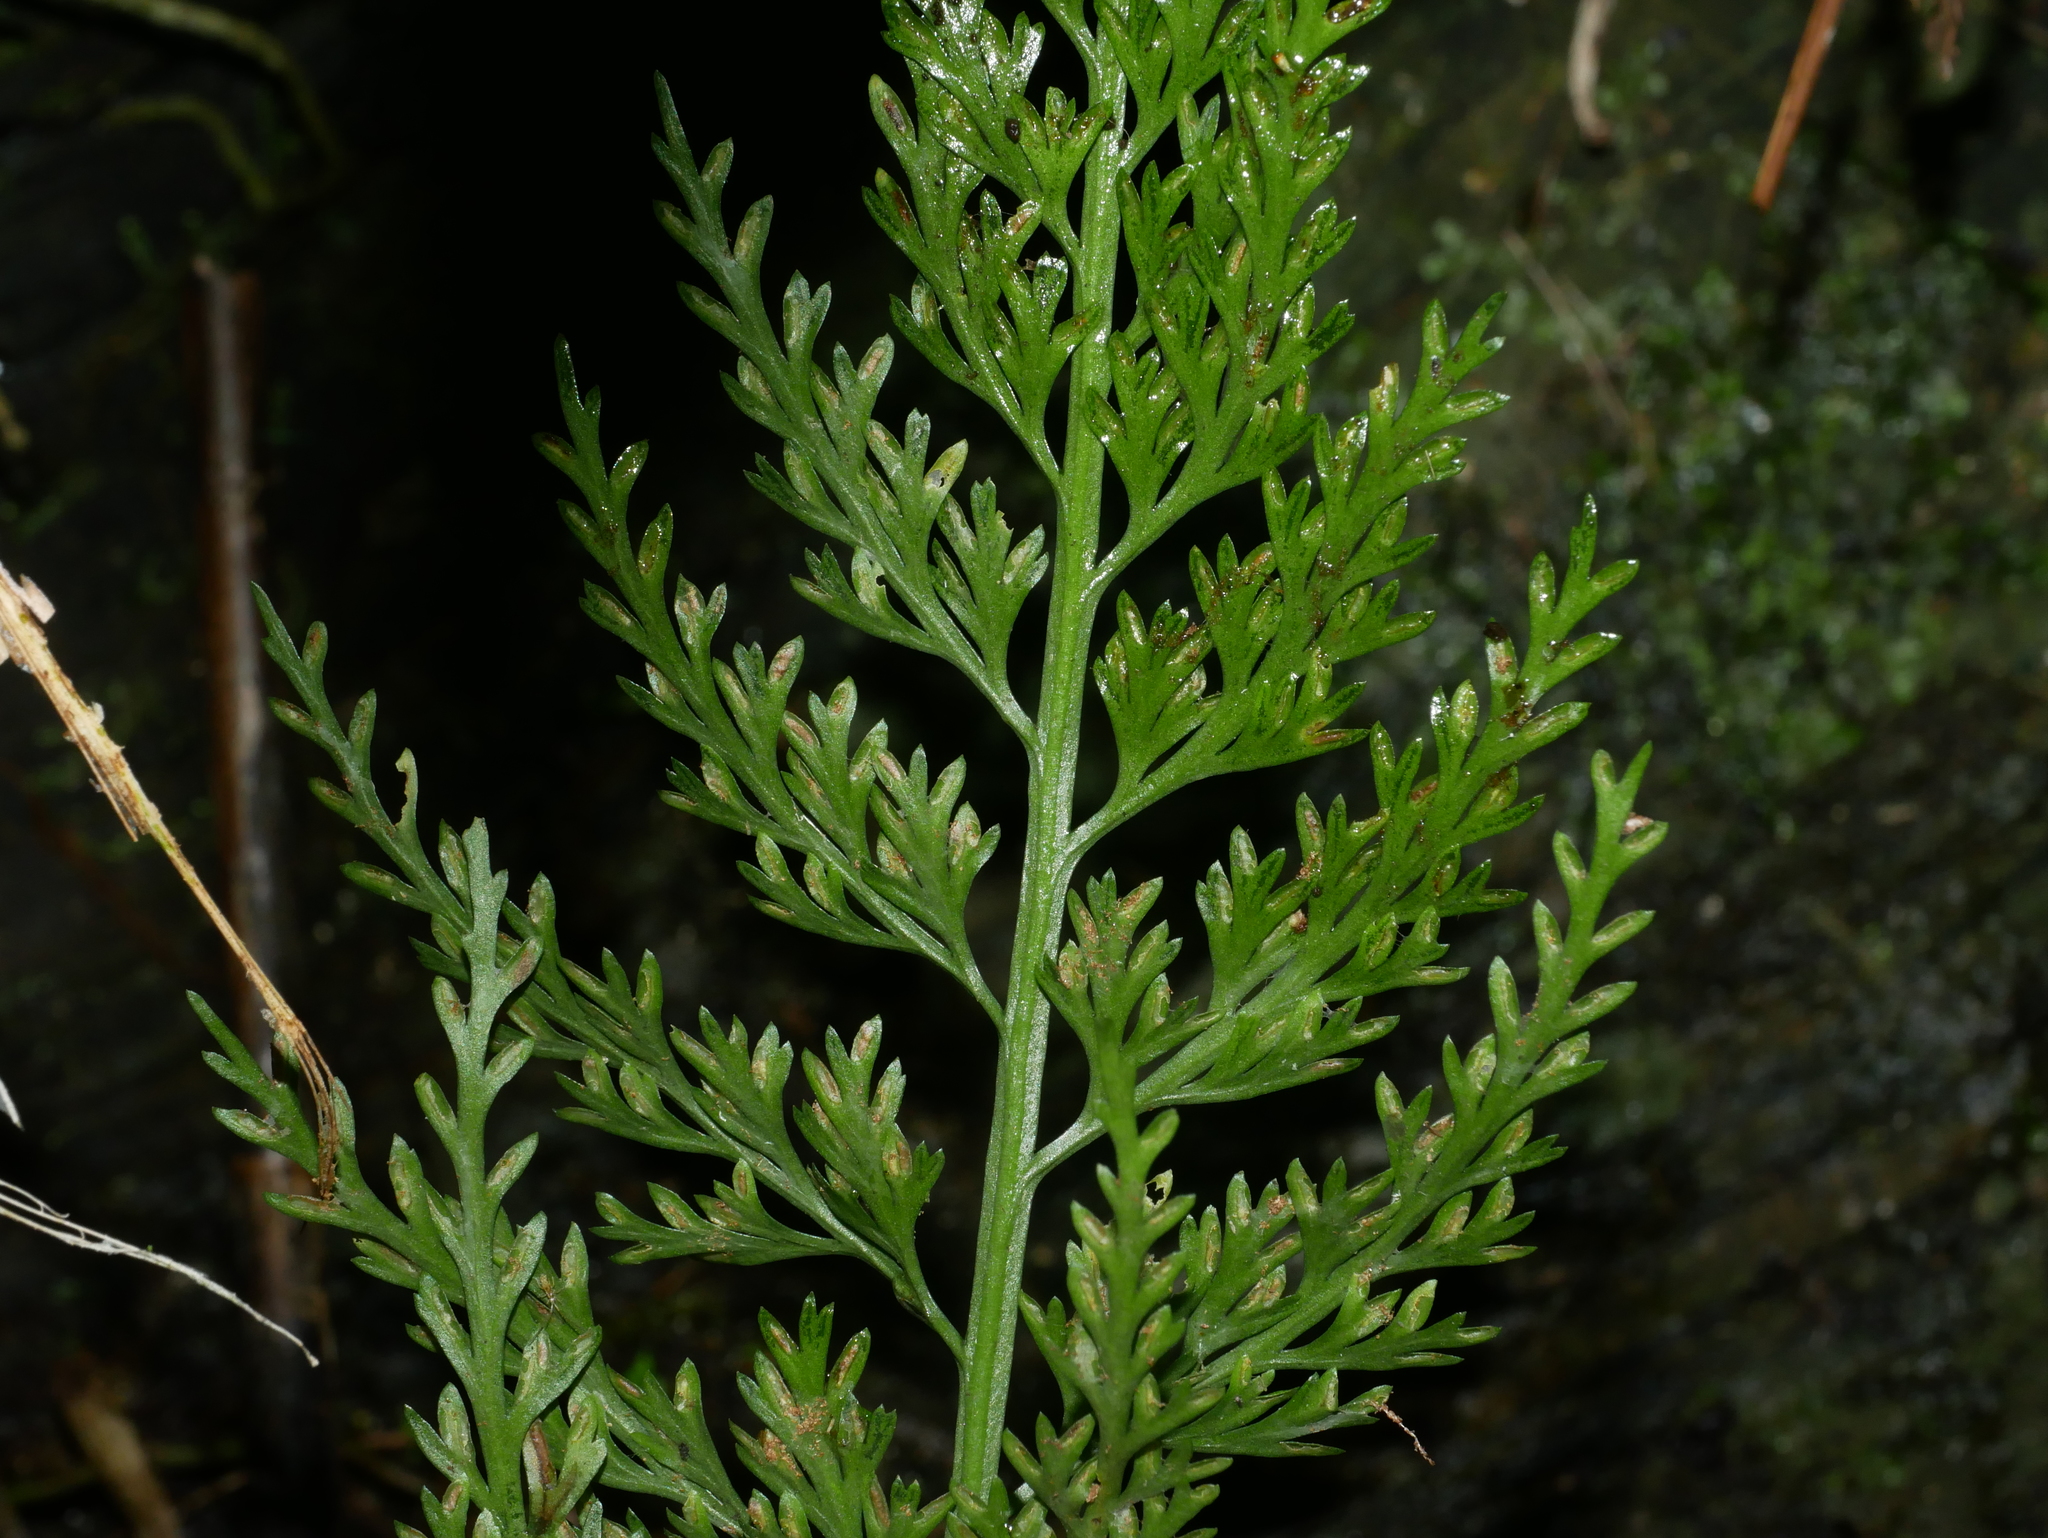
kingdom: Plantae
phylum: Tracheophyta
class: Polypodiopsida
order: Polypodiales
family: Aspleniaceae
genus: Asplenium
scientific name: Asplenium ritoense
